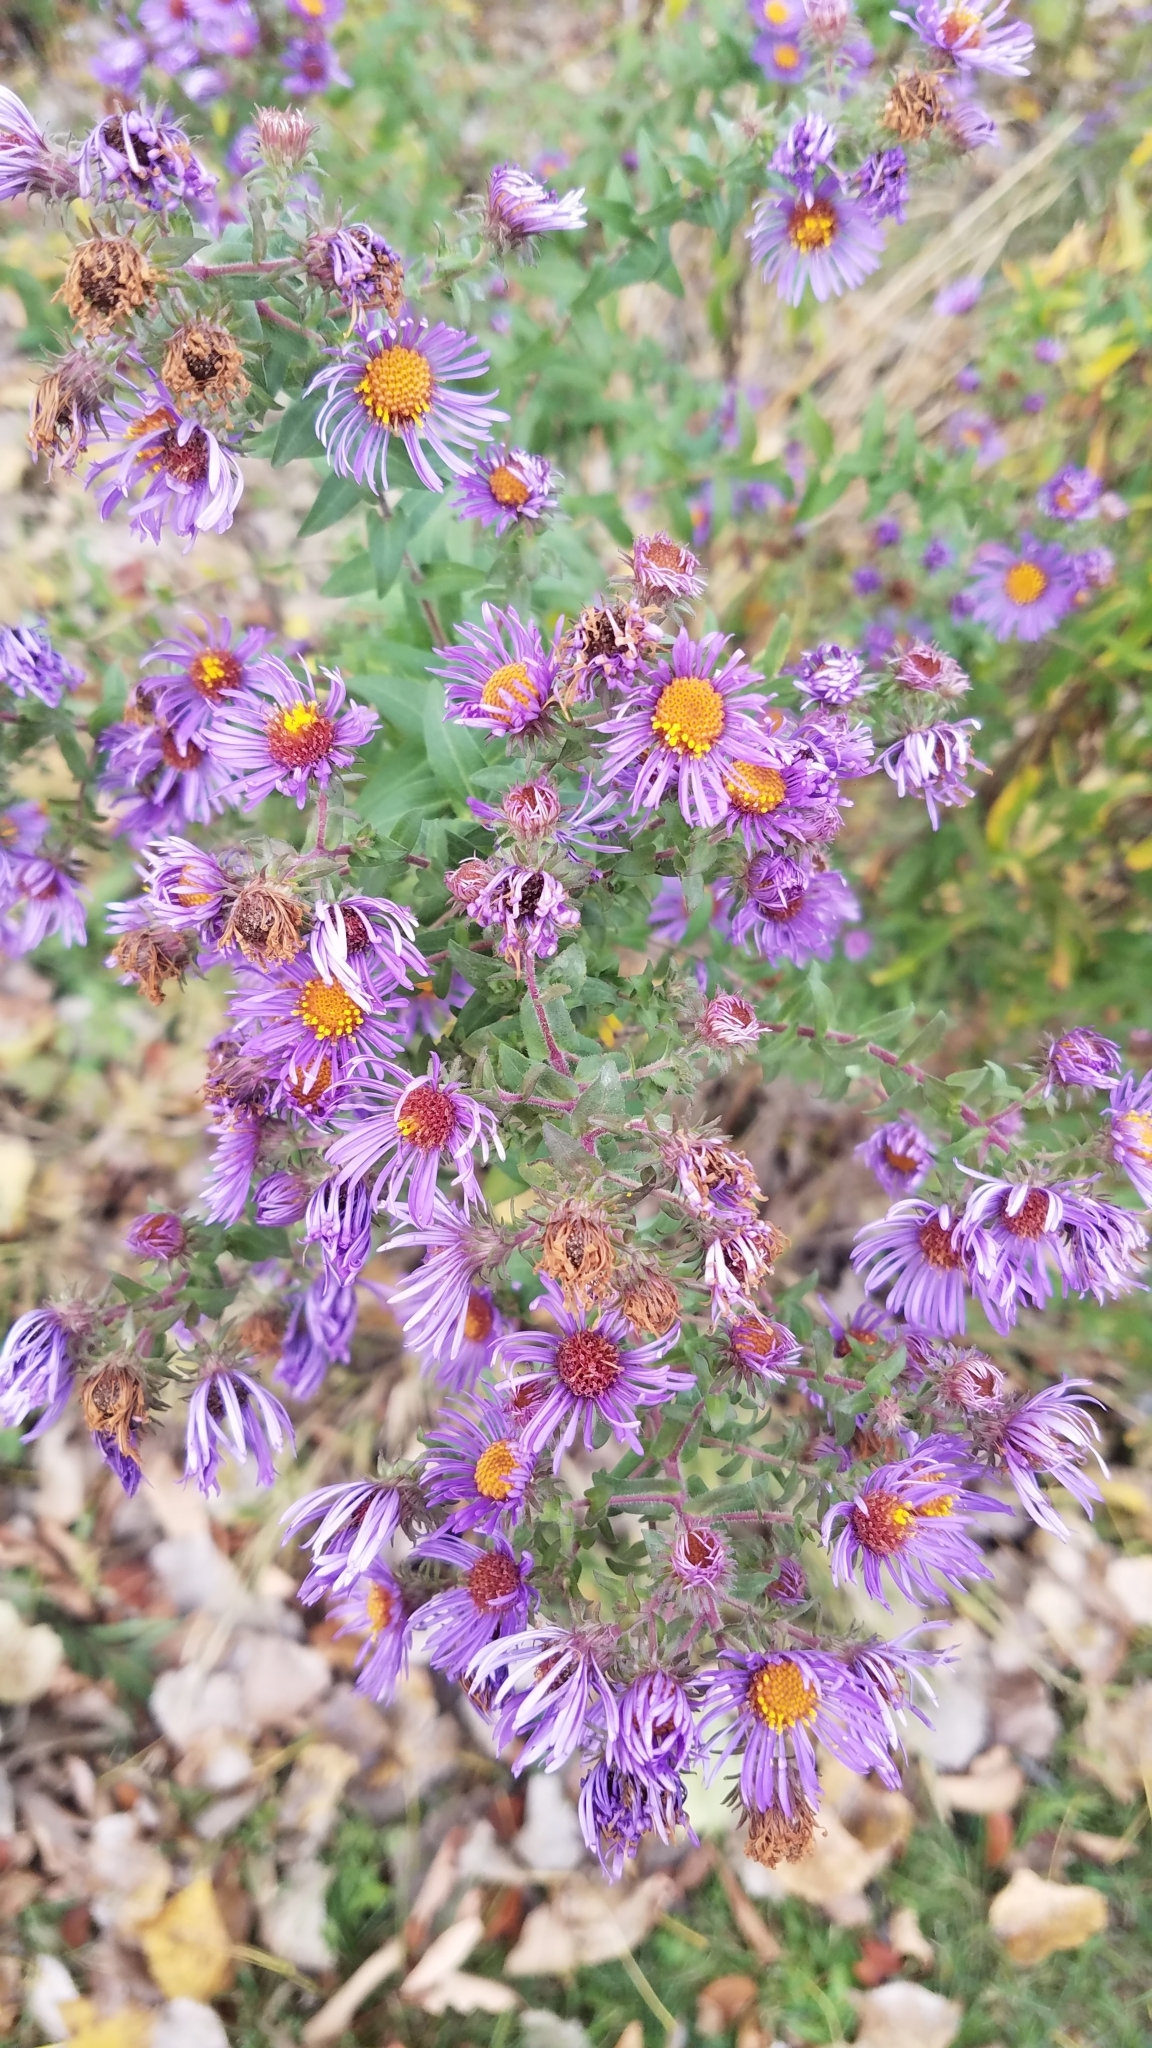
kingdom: Plantae
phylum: Tracheophyta
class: Magnoliopsida
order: Asterales
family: Asteraceae
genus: Symphyotrichum
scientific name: Symphyotrichum novae-angliae
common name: Michaelmas daisy
